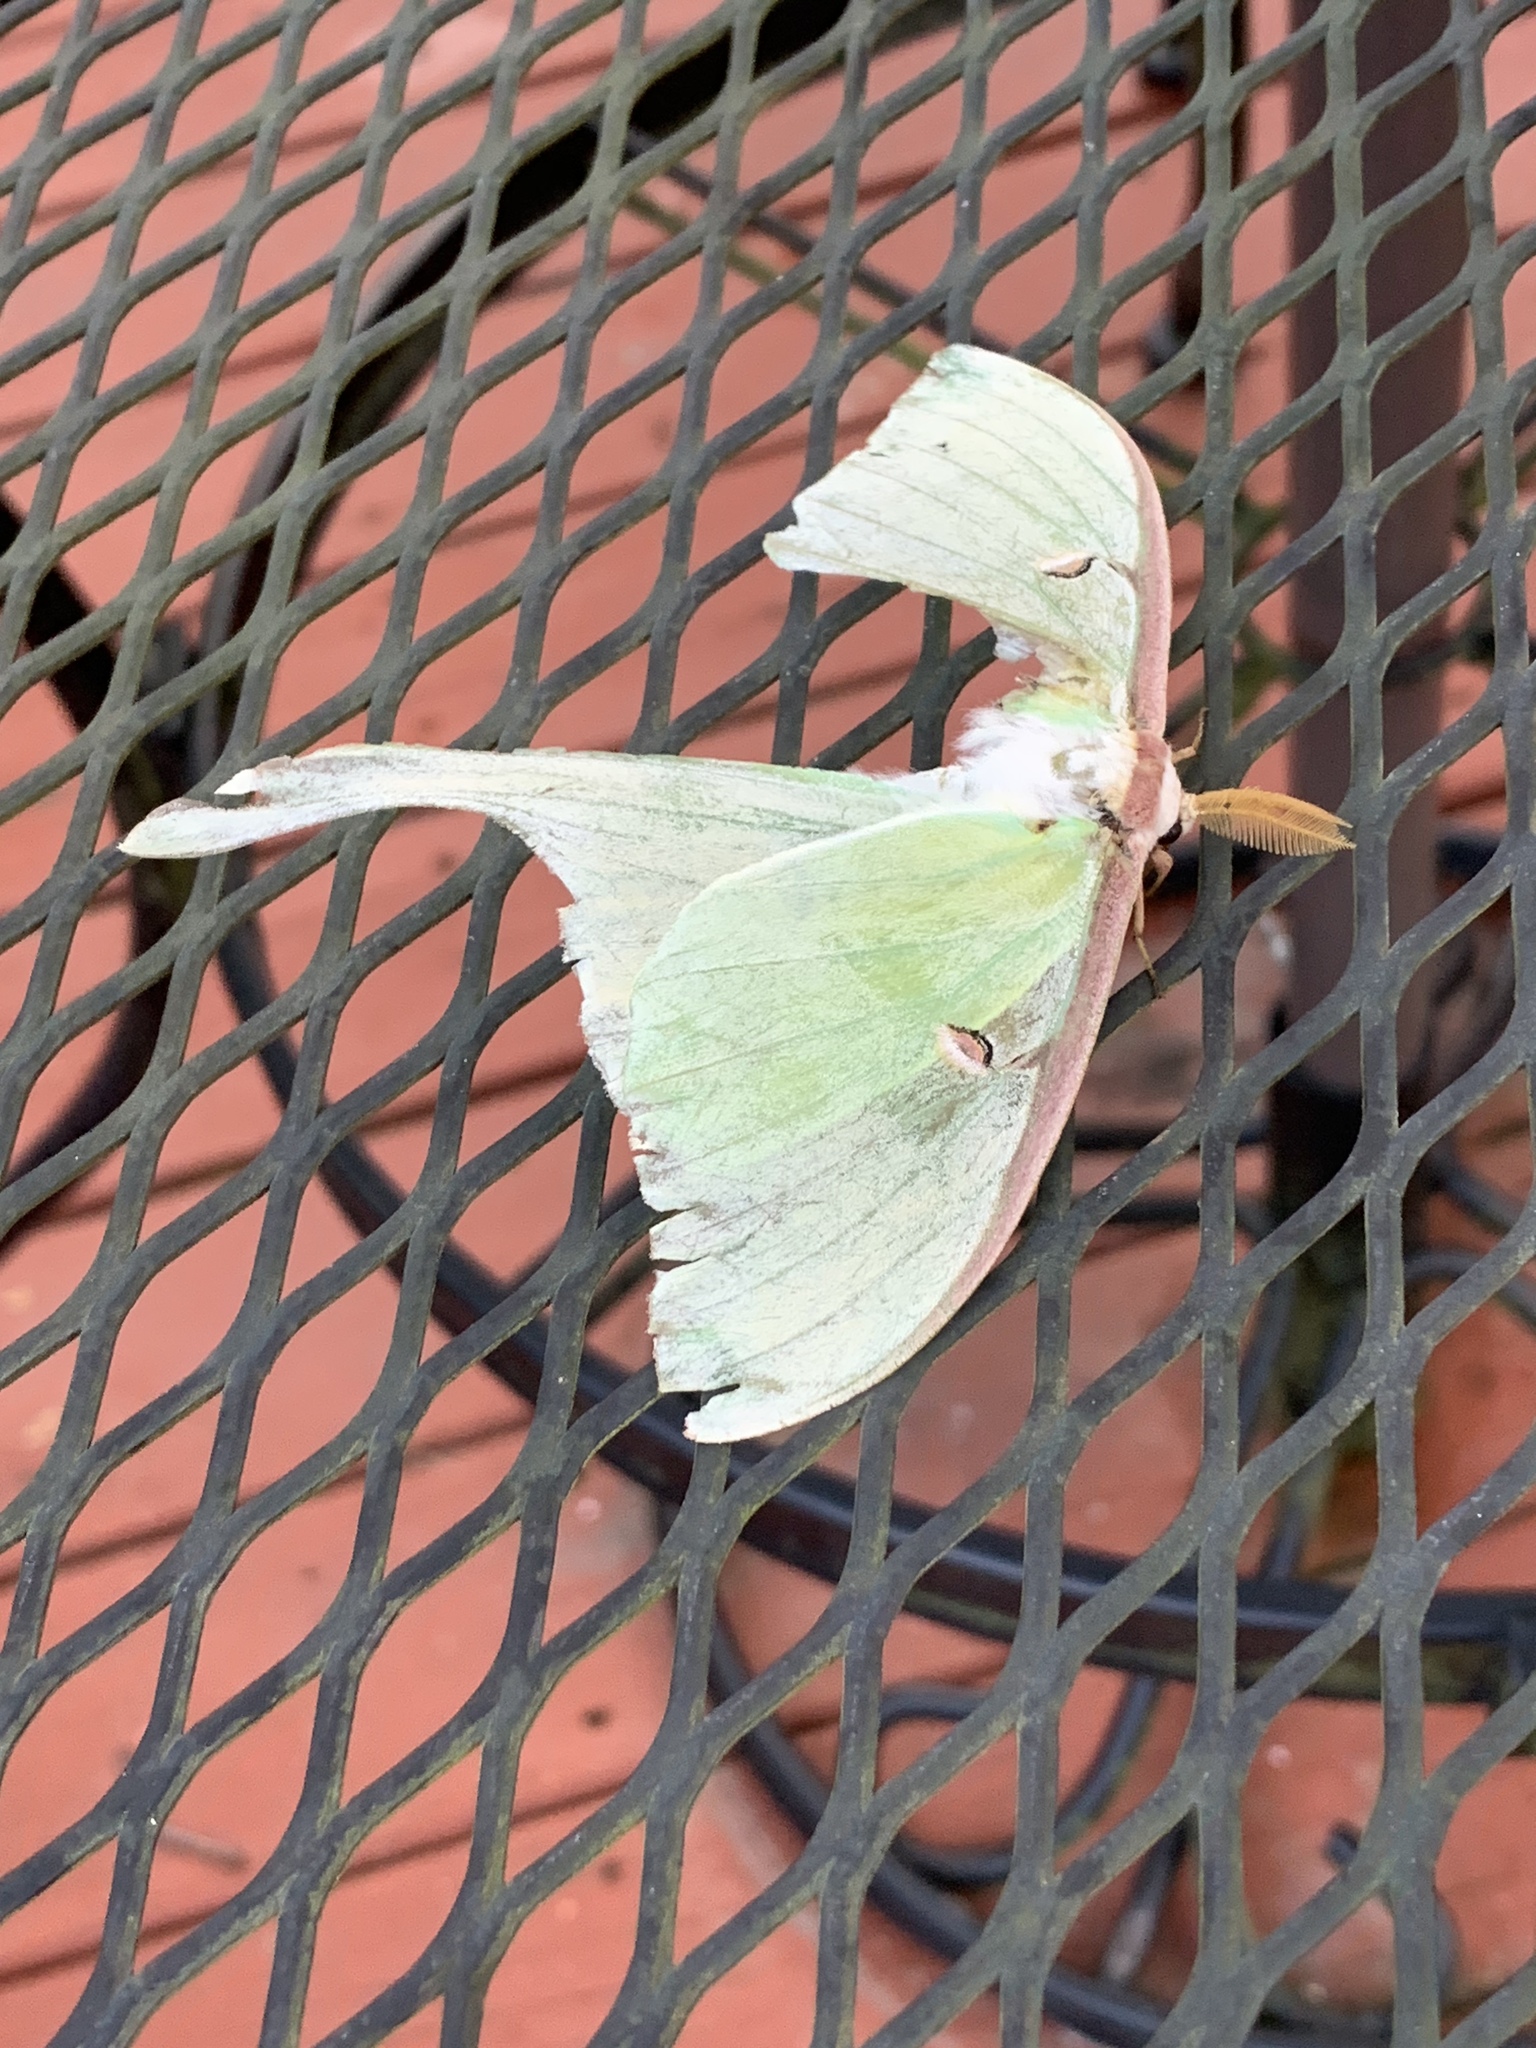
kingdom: Animalia
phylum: Arthropoda
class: Insecta
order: Lepidoptera
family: Saturniidae
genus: Actias
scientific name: Actias luna
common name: Luna moth
